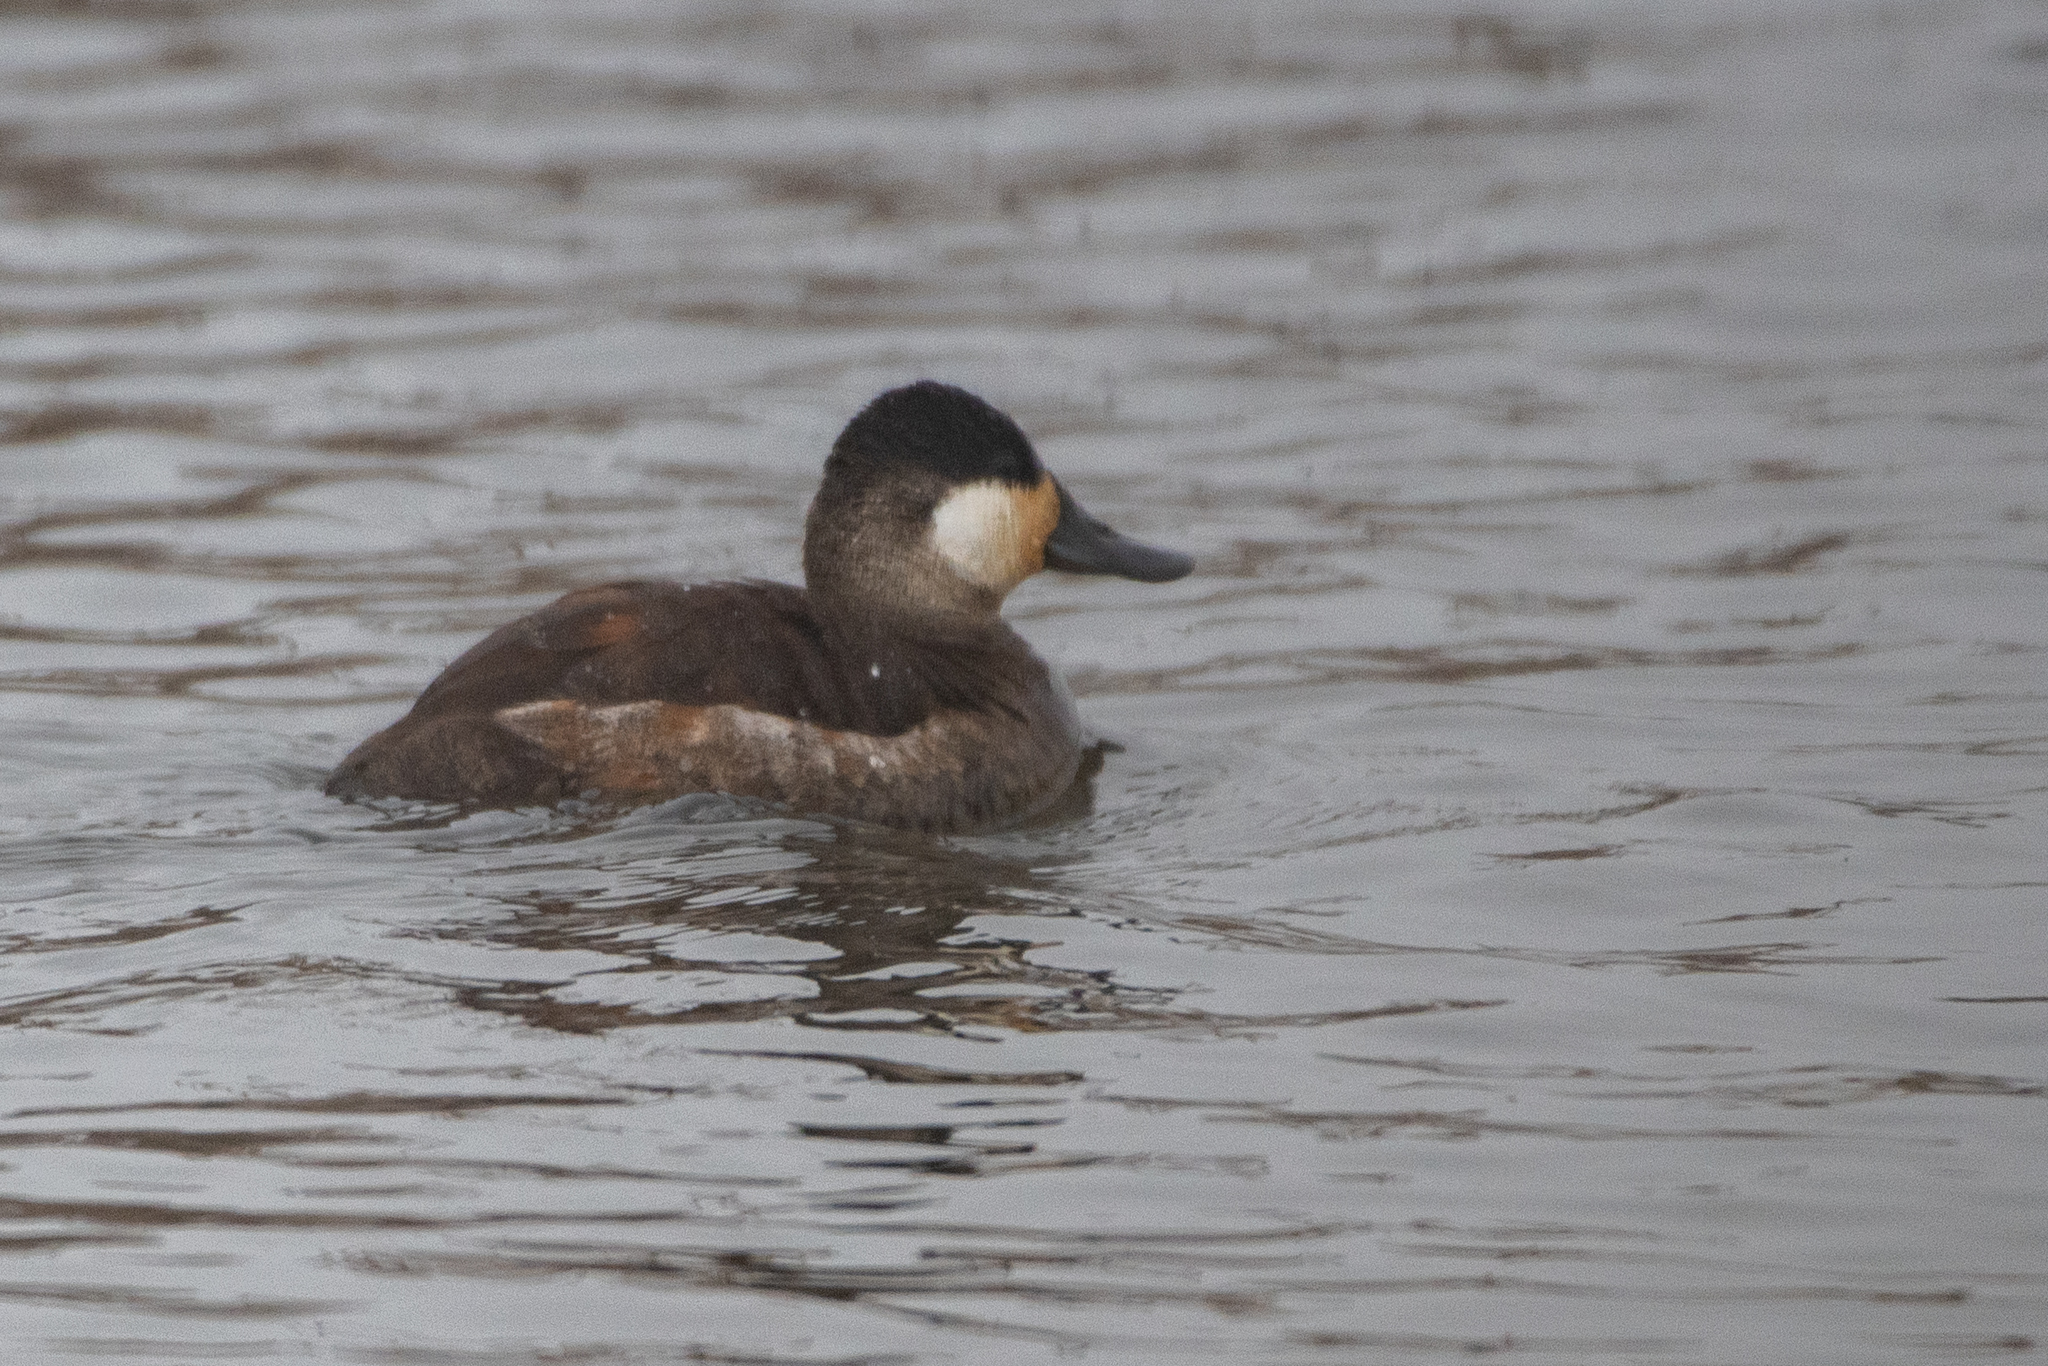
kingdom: Animalia
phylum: Chordata
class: Aves
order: Anseriformes
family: Anatidae
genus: Oxyura
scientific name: Oxyura jamaicensis
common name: Ruddy duck
